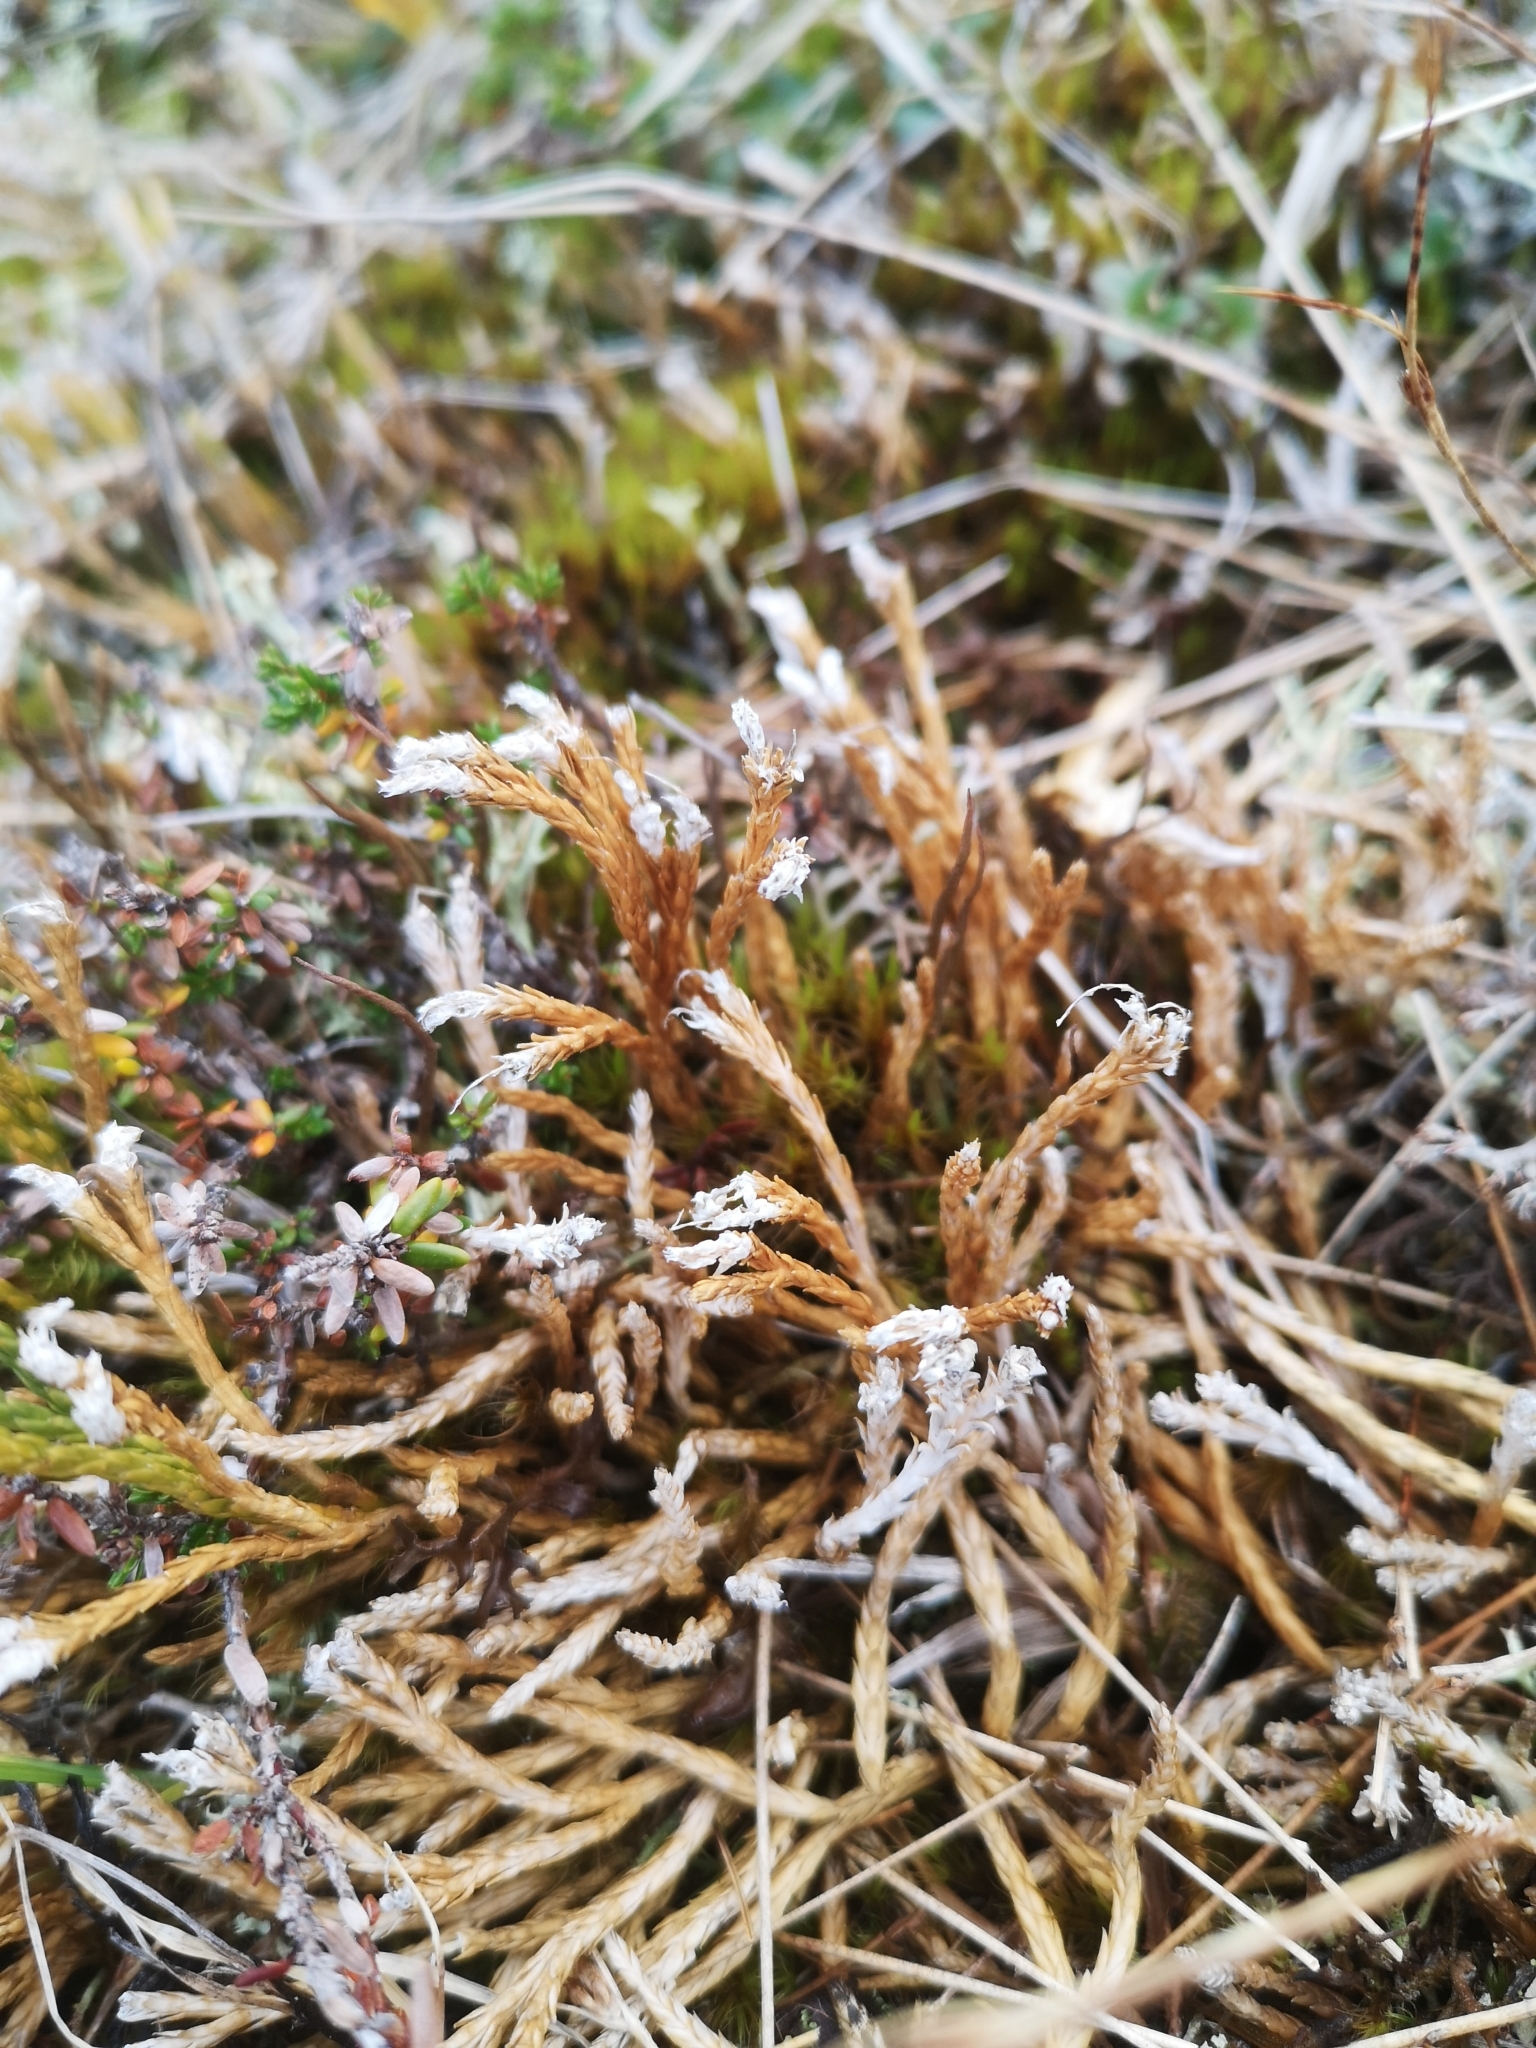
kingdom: Plantae
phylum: Tracheophyta
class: Lycopodiopsida
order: Lycopodiales
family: Lycopodiaceae
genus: Diphasiastrum
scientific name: Diphasiastrum alpinum
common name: Alpine clubmoss
